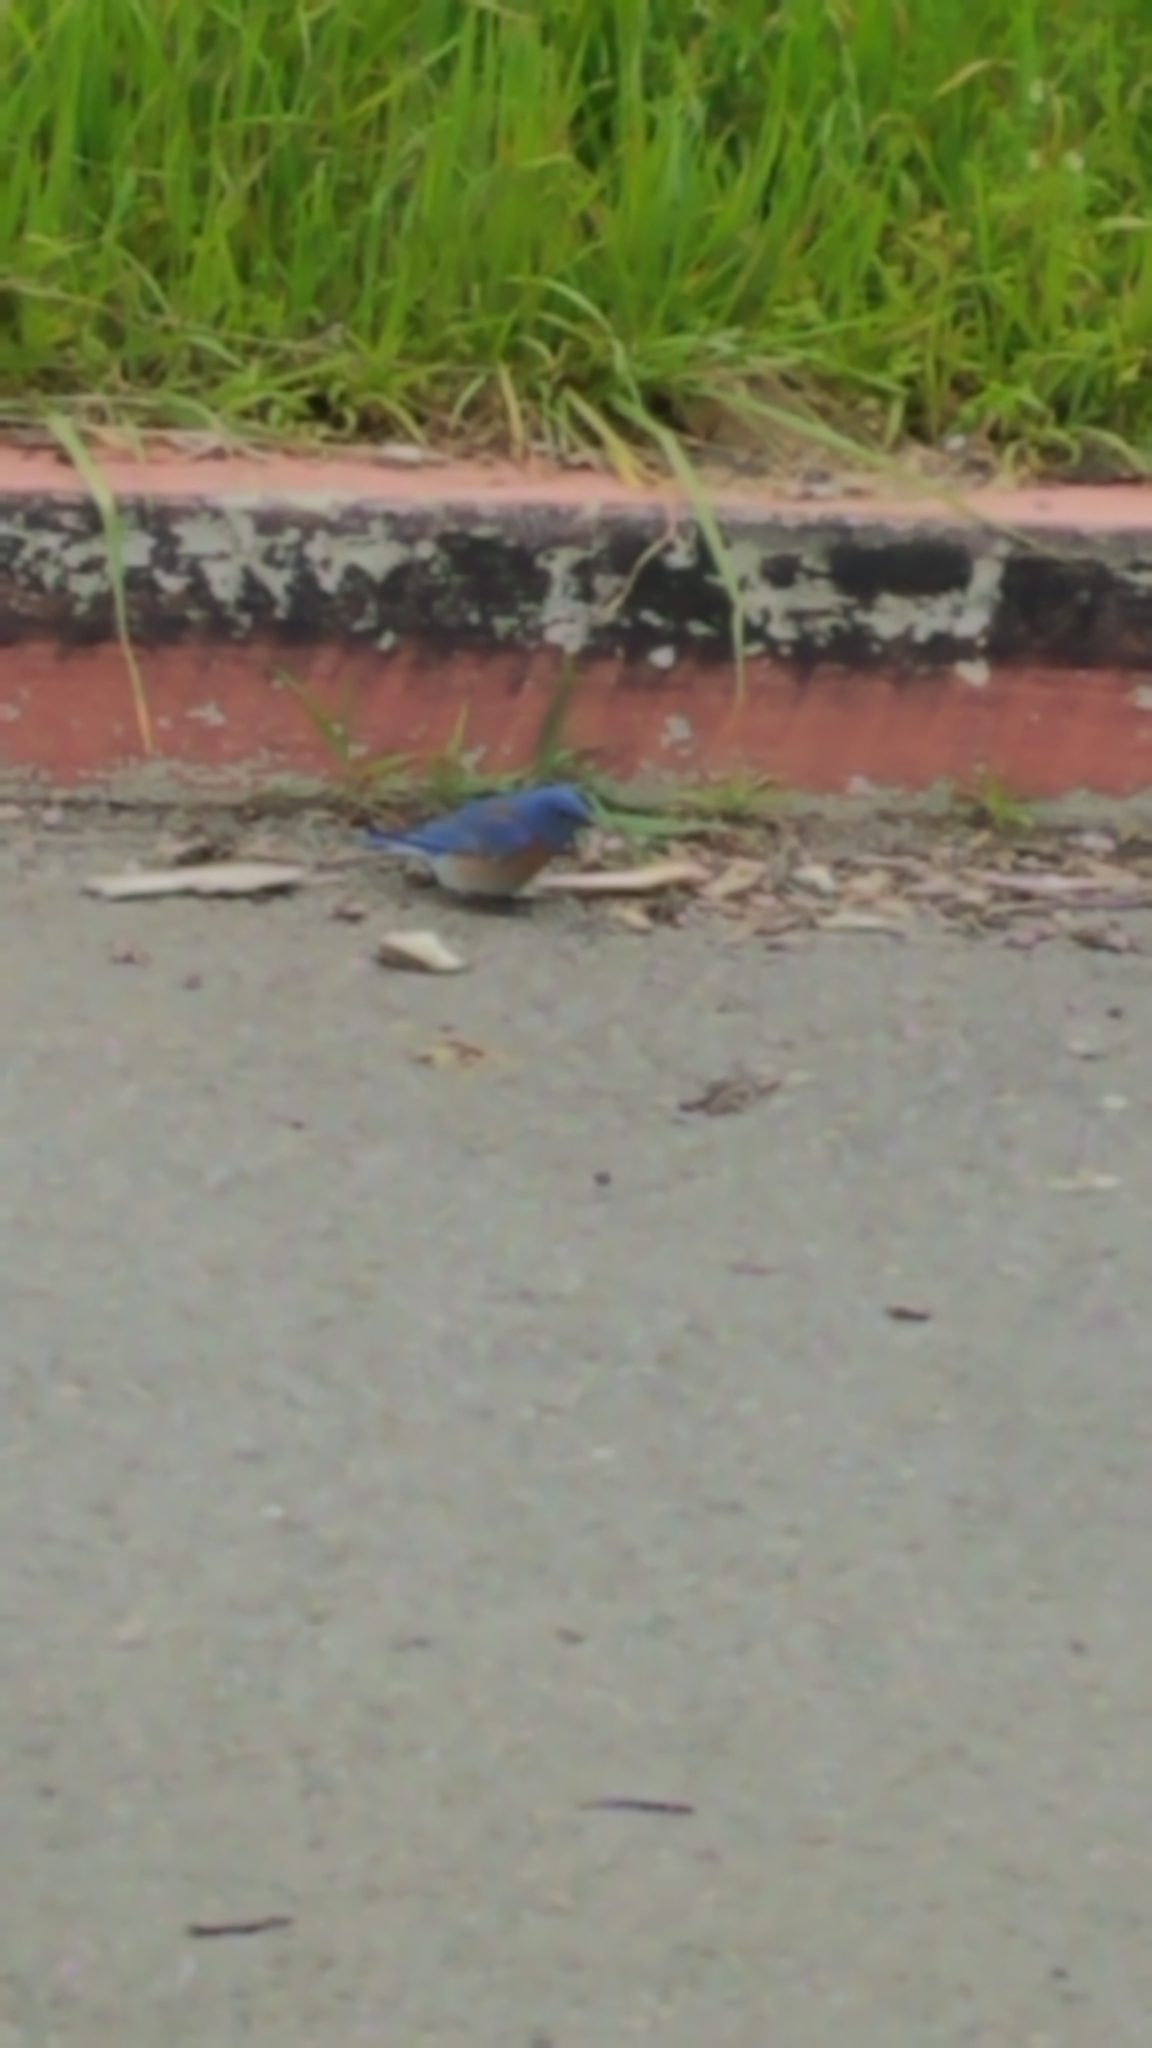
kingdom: Animalia
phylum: Chordata
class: Aves
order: Passeriformes
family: Turdidae
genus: Sialia
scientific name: Sialia mexicana
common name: Western bluebird
